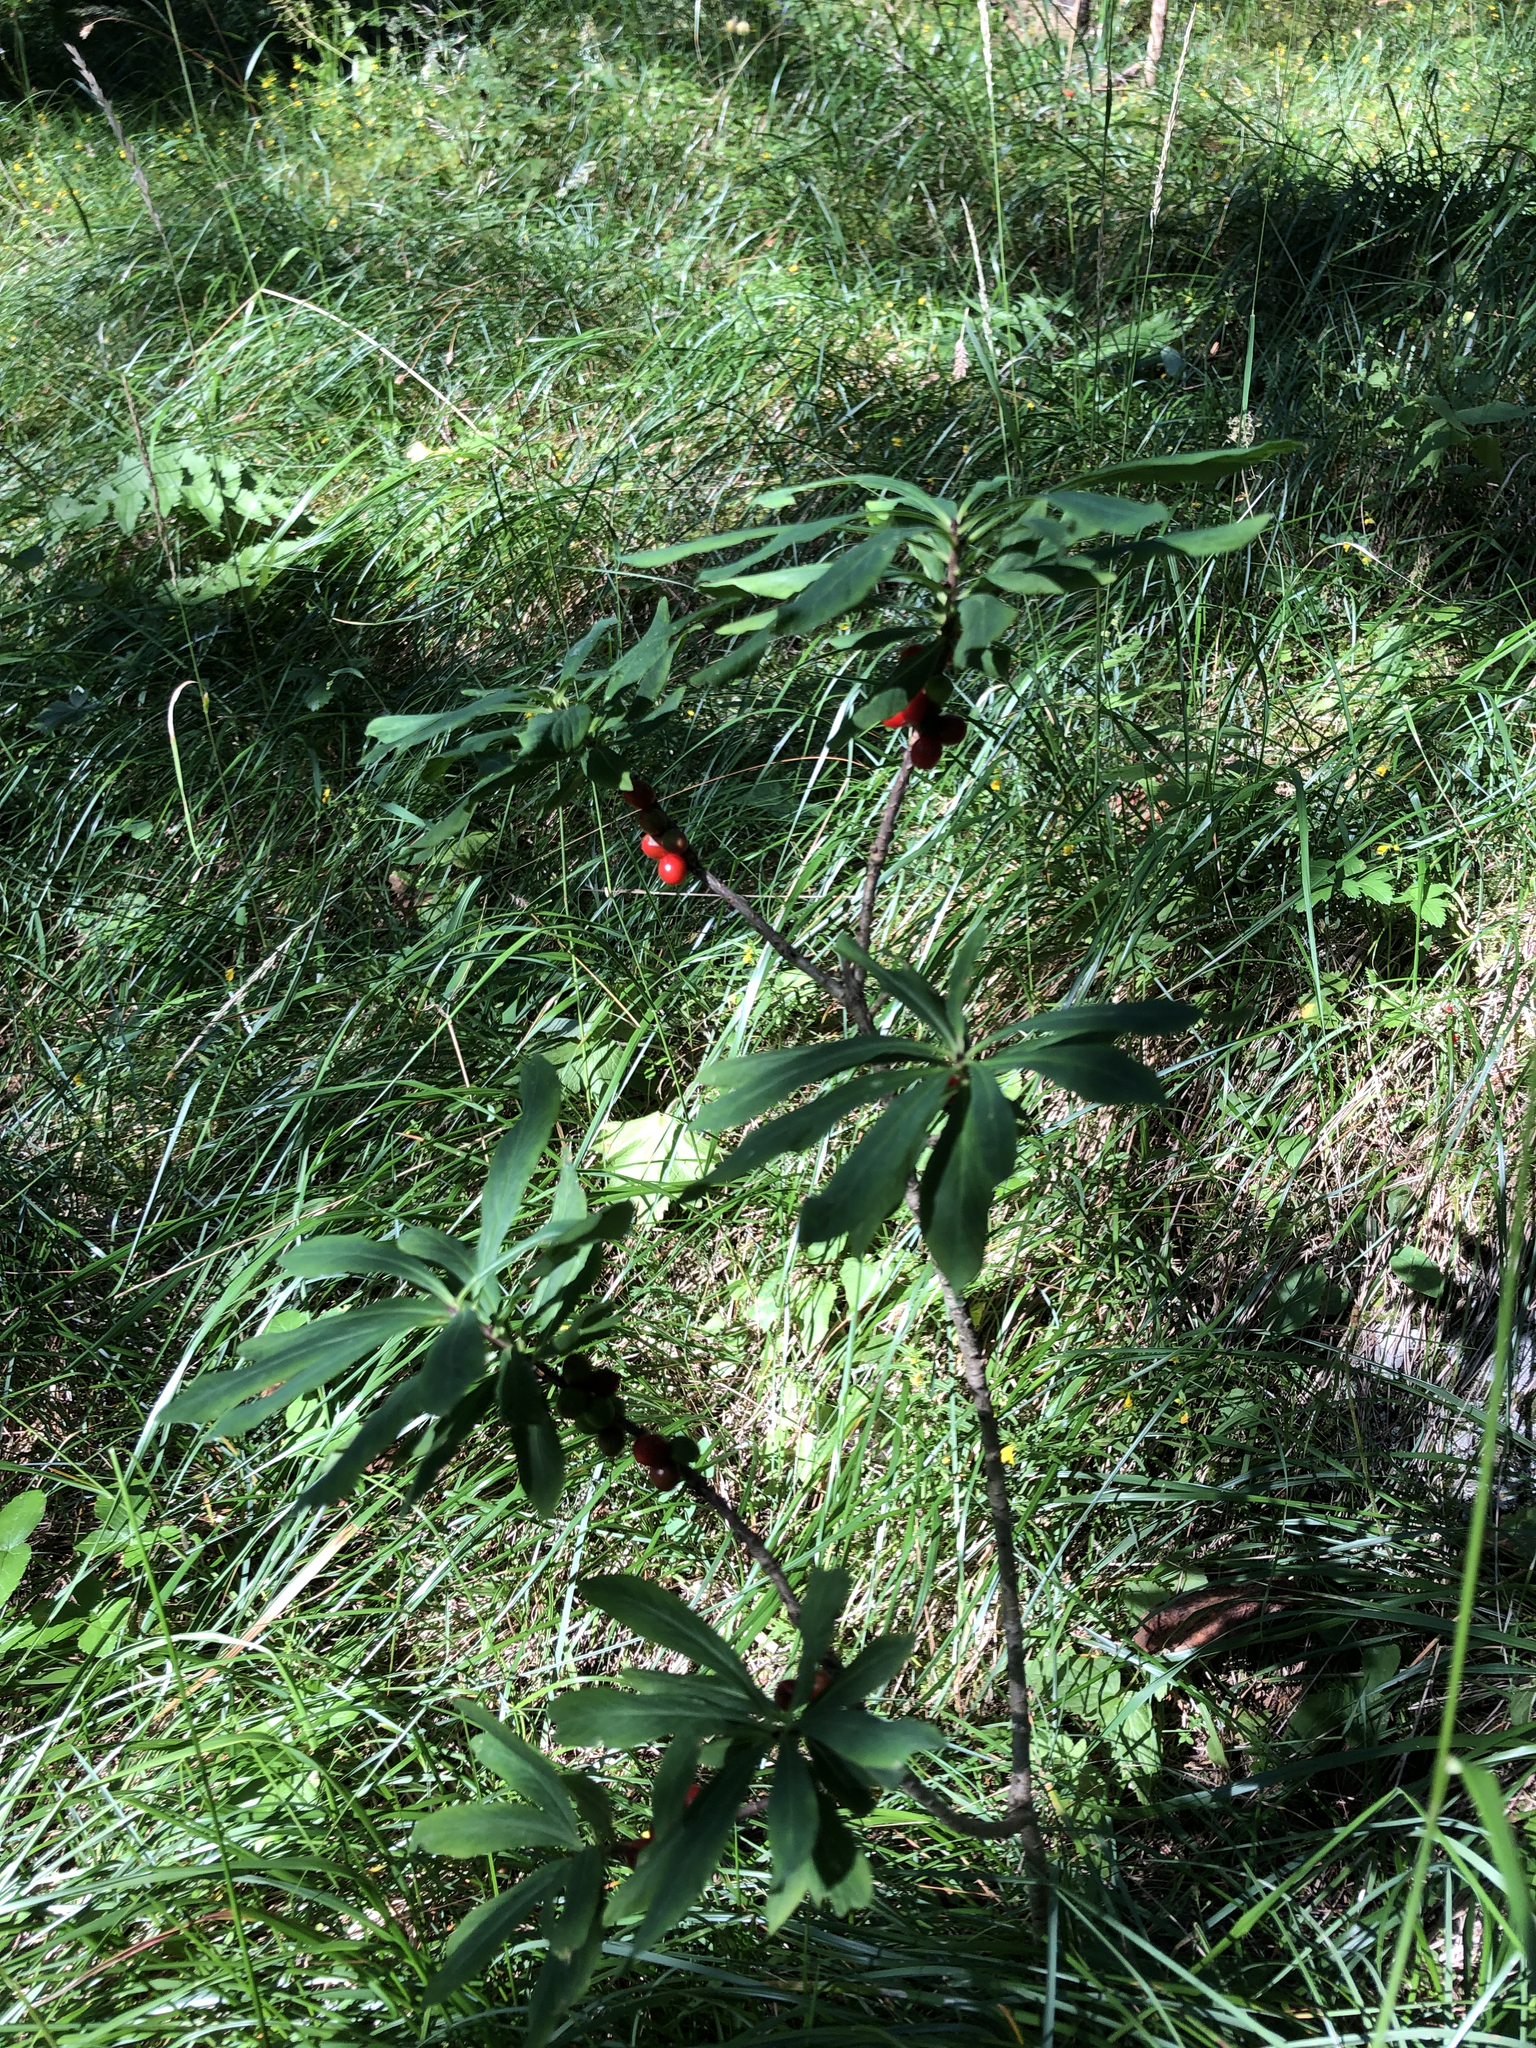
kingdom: Plantae
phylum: Tracheophyta
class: Magnoliopsida
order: Malvales
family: Thymelaeaceae
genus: Daphne
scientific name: Daphne mezereum
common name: Mezereon
